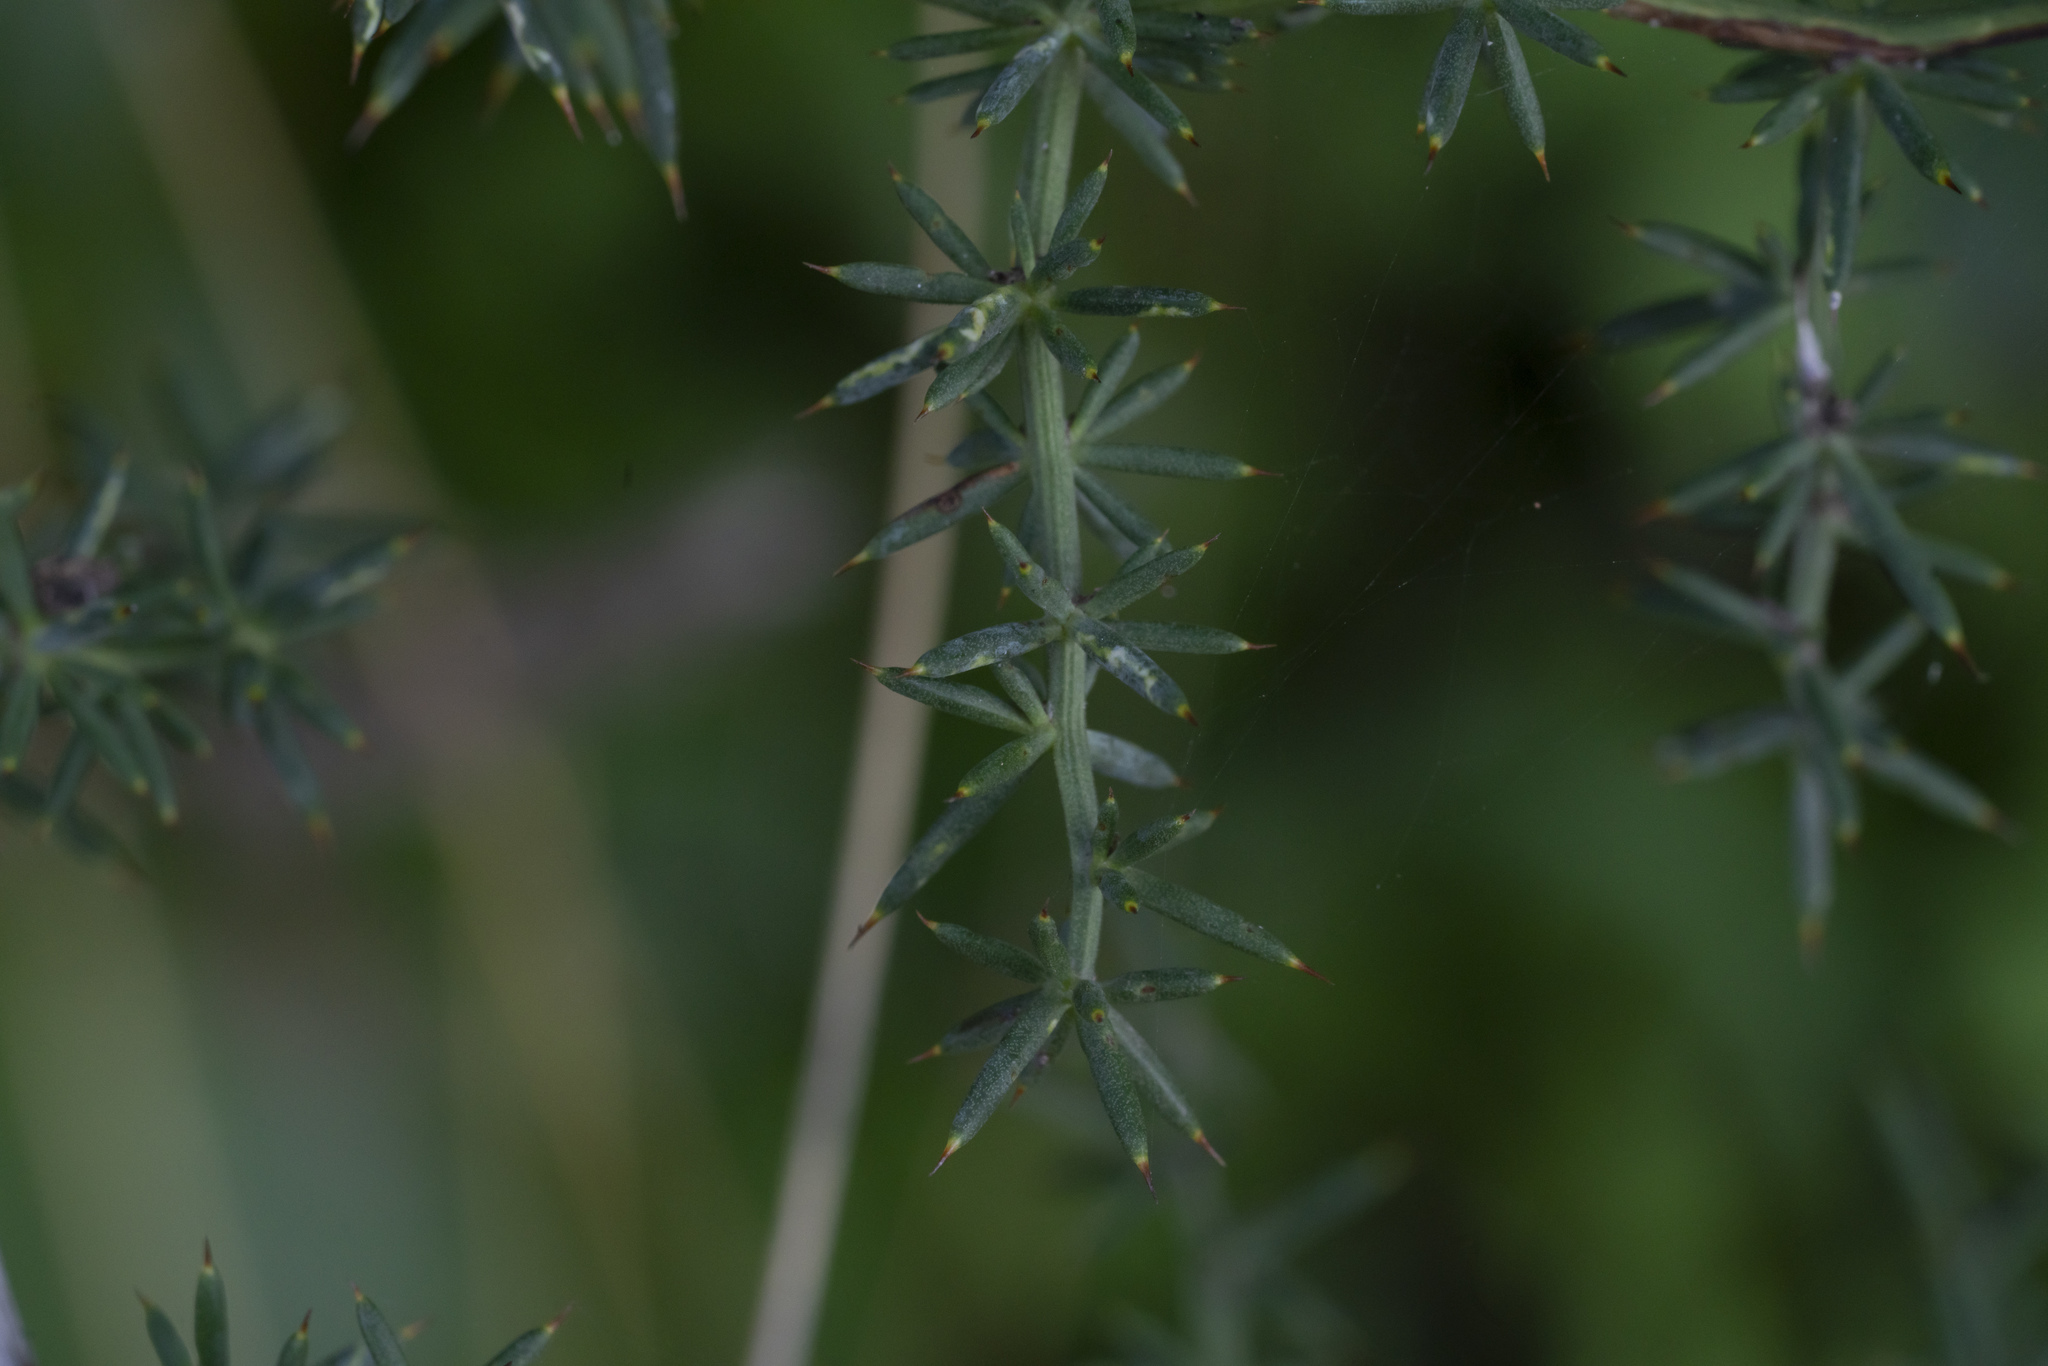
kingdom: Plantae
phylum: Tracheophyta
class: Liliopsida
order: Asparagales
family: Asparagaceae
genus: Asparagus
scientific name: Asparagus aphyllus
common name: Mediterranean asparagus
